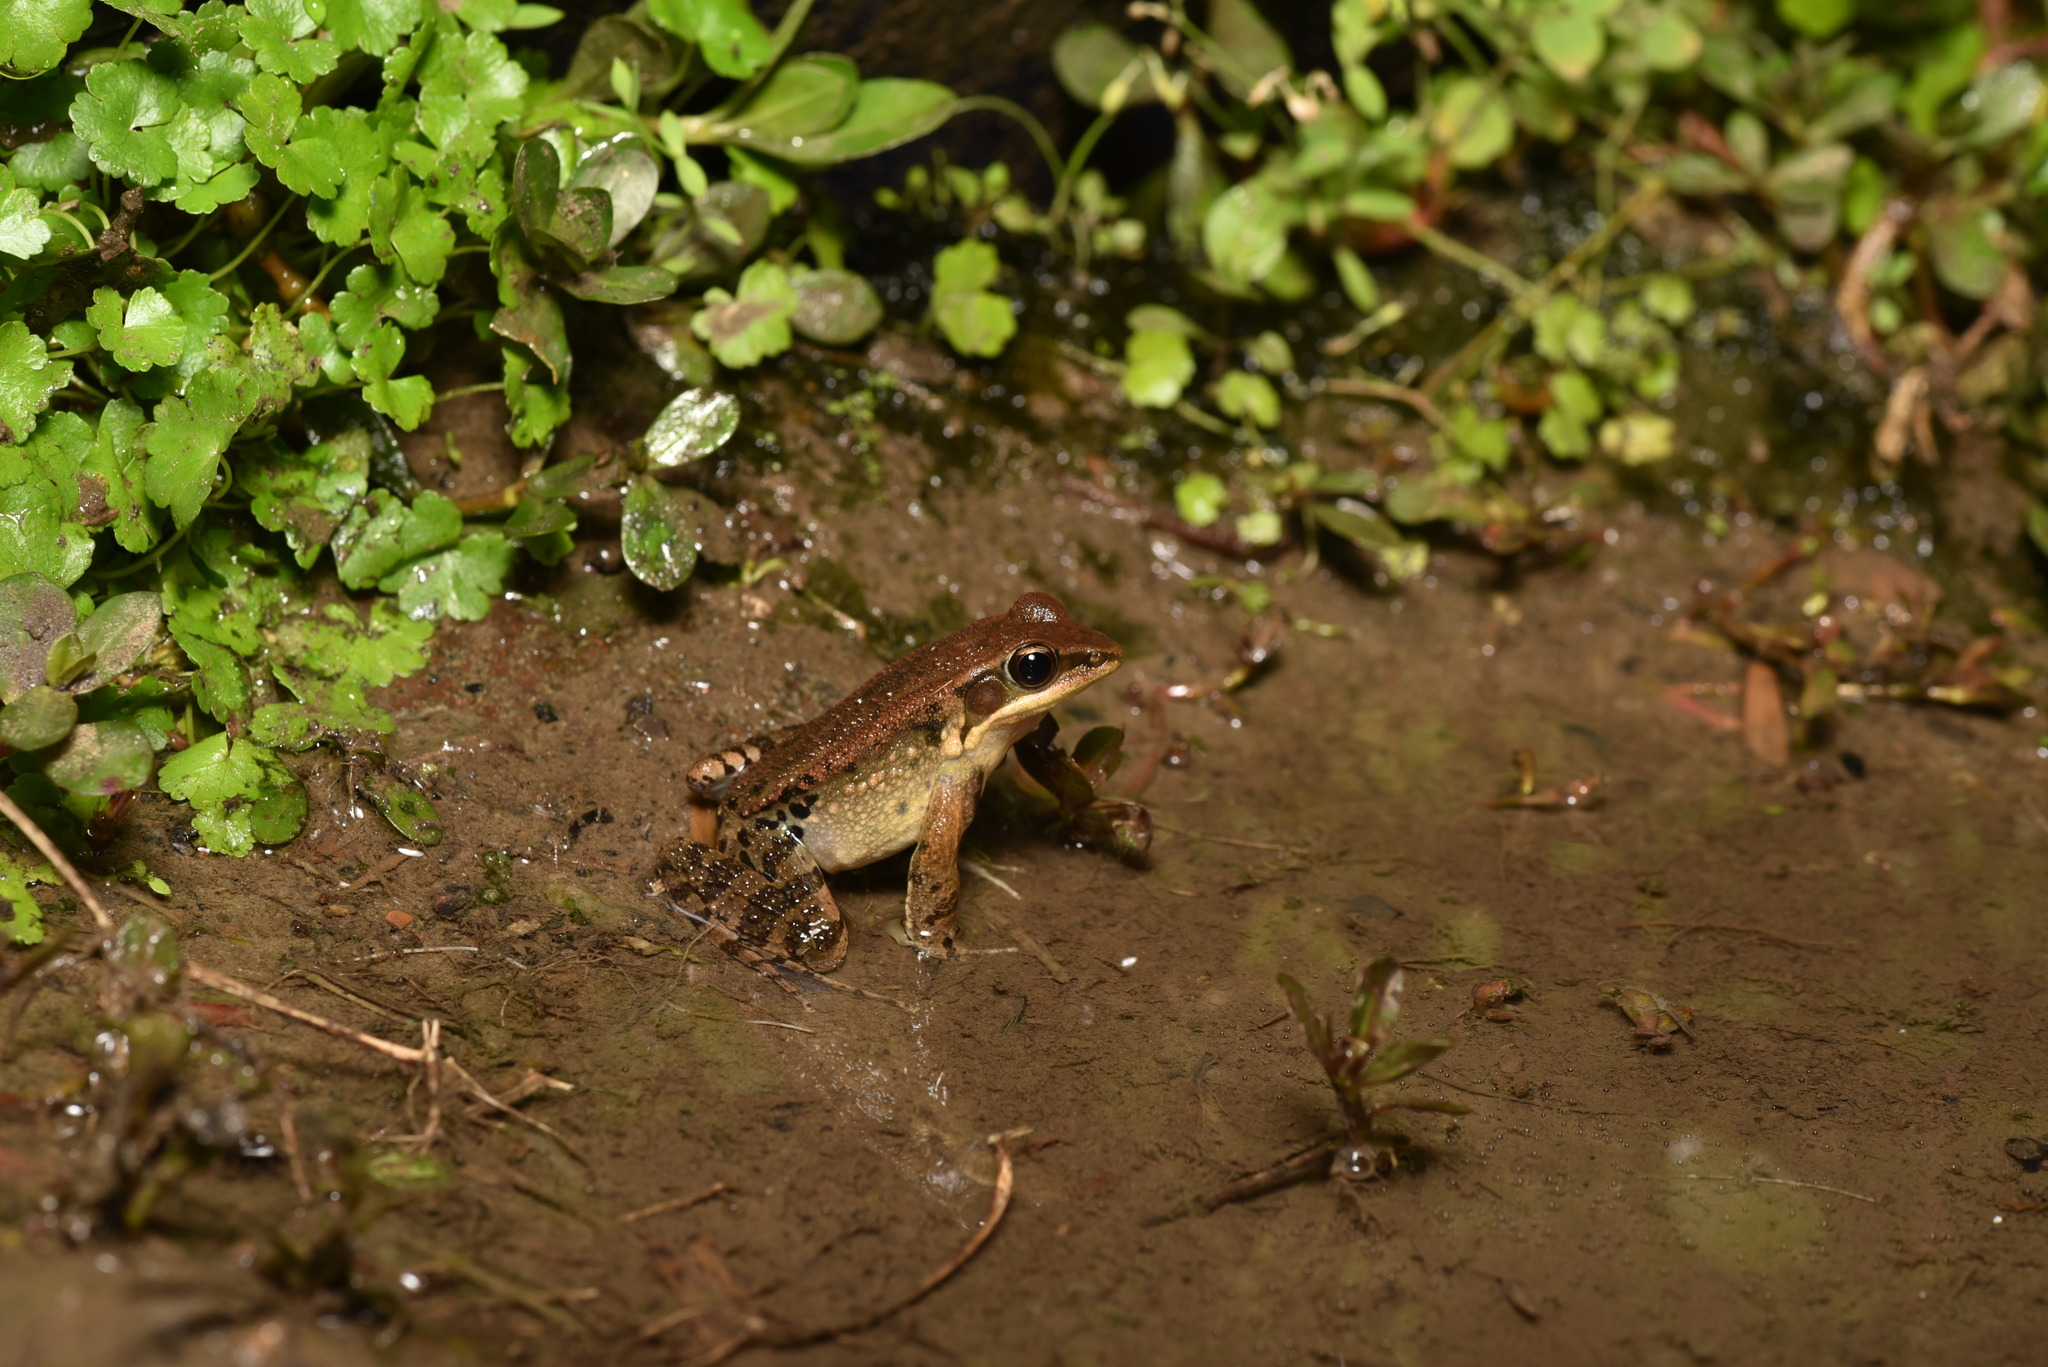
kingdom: Animalia
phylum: Chordata
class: Amphibia
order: Anura
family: Ranidae
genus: Hylarana
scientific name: Hylarana latouchii
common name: Broad-folded frog
